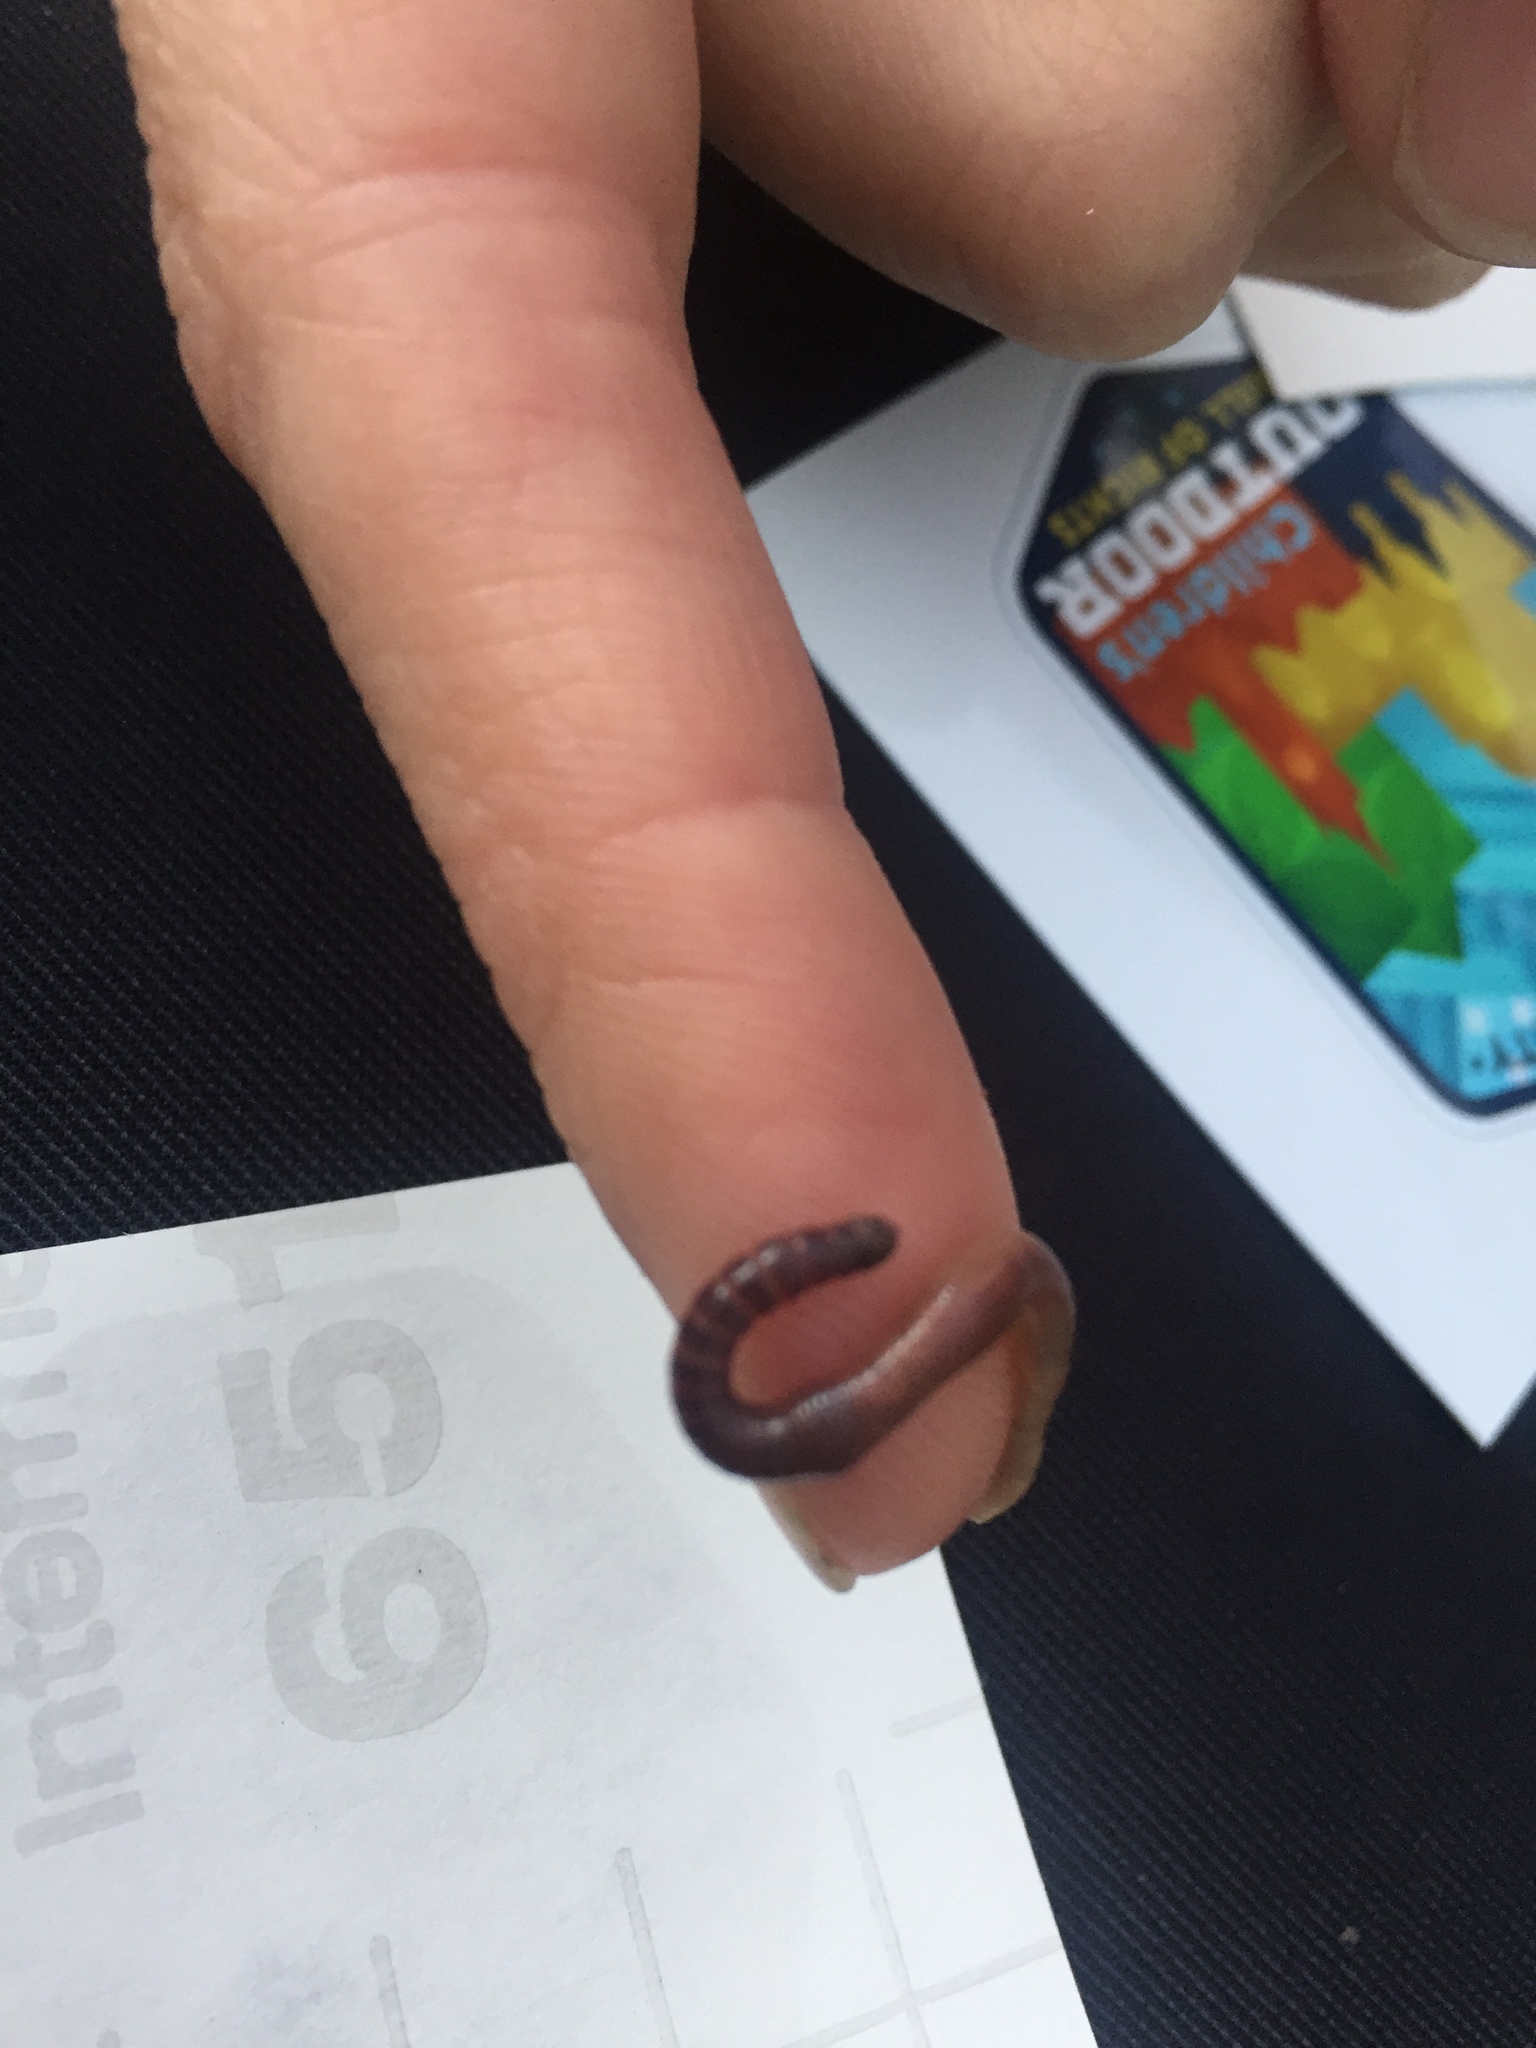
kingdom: Animalia
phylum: Annelida
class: Clitellata
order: Crassiclitellata
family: Lumbricidae
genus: Lumbricus
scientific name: Lumbricus terrestris
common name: Common earthworm
